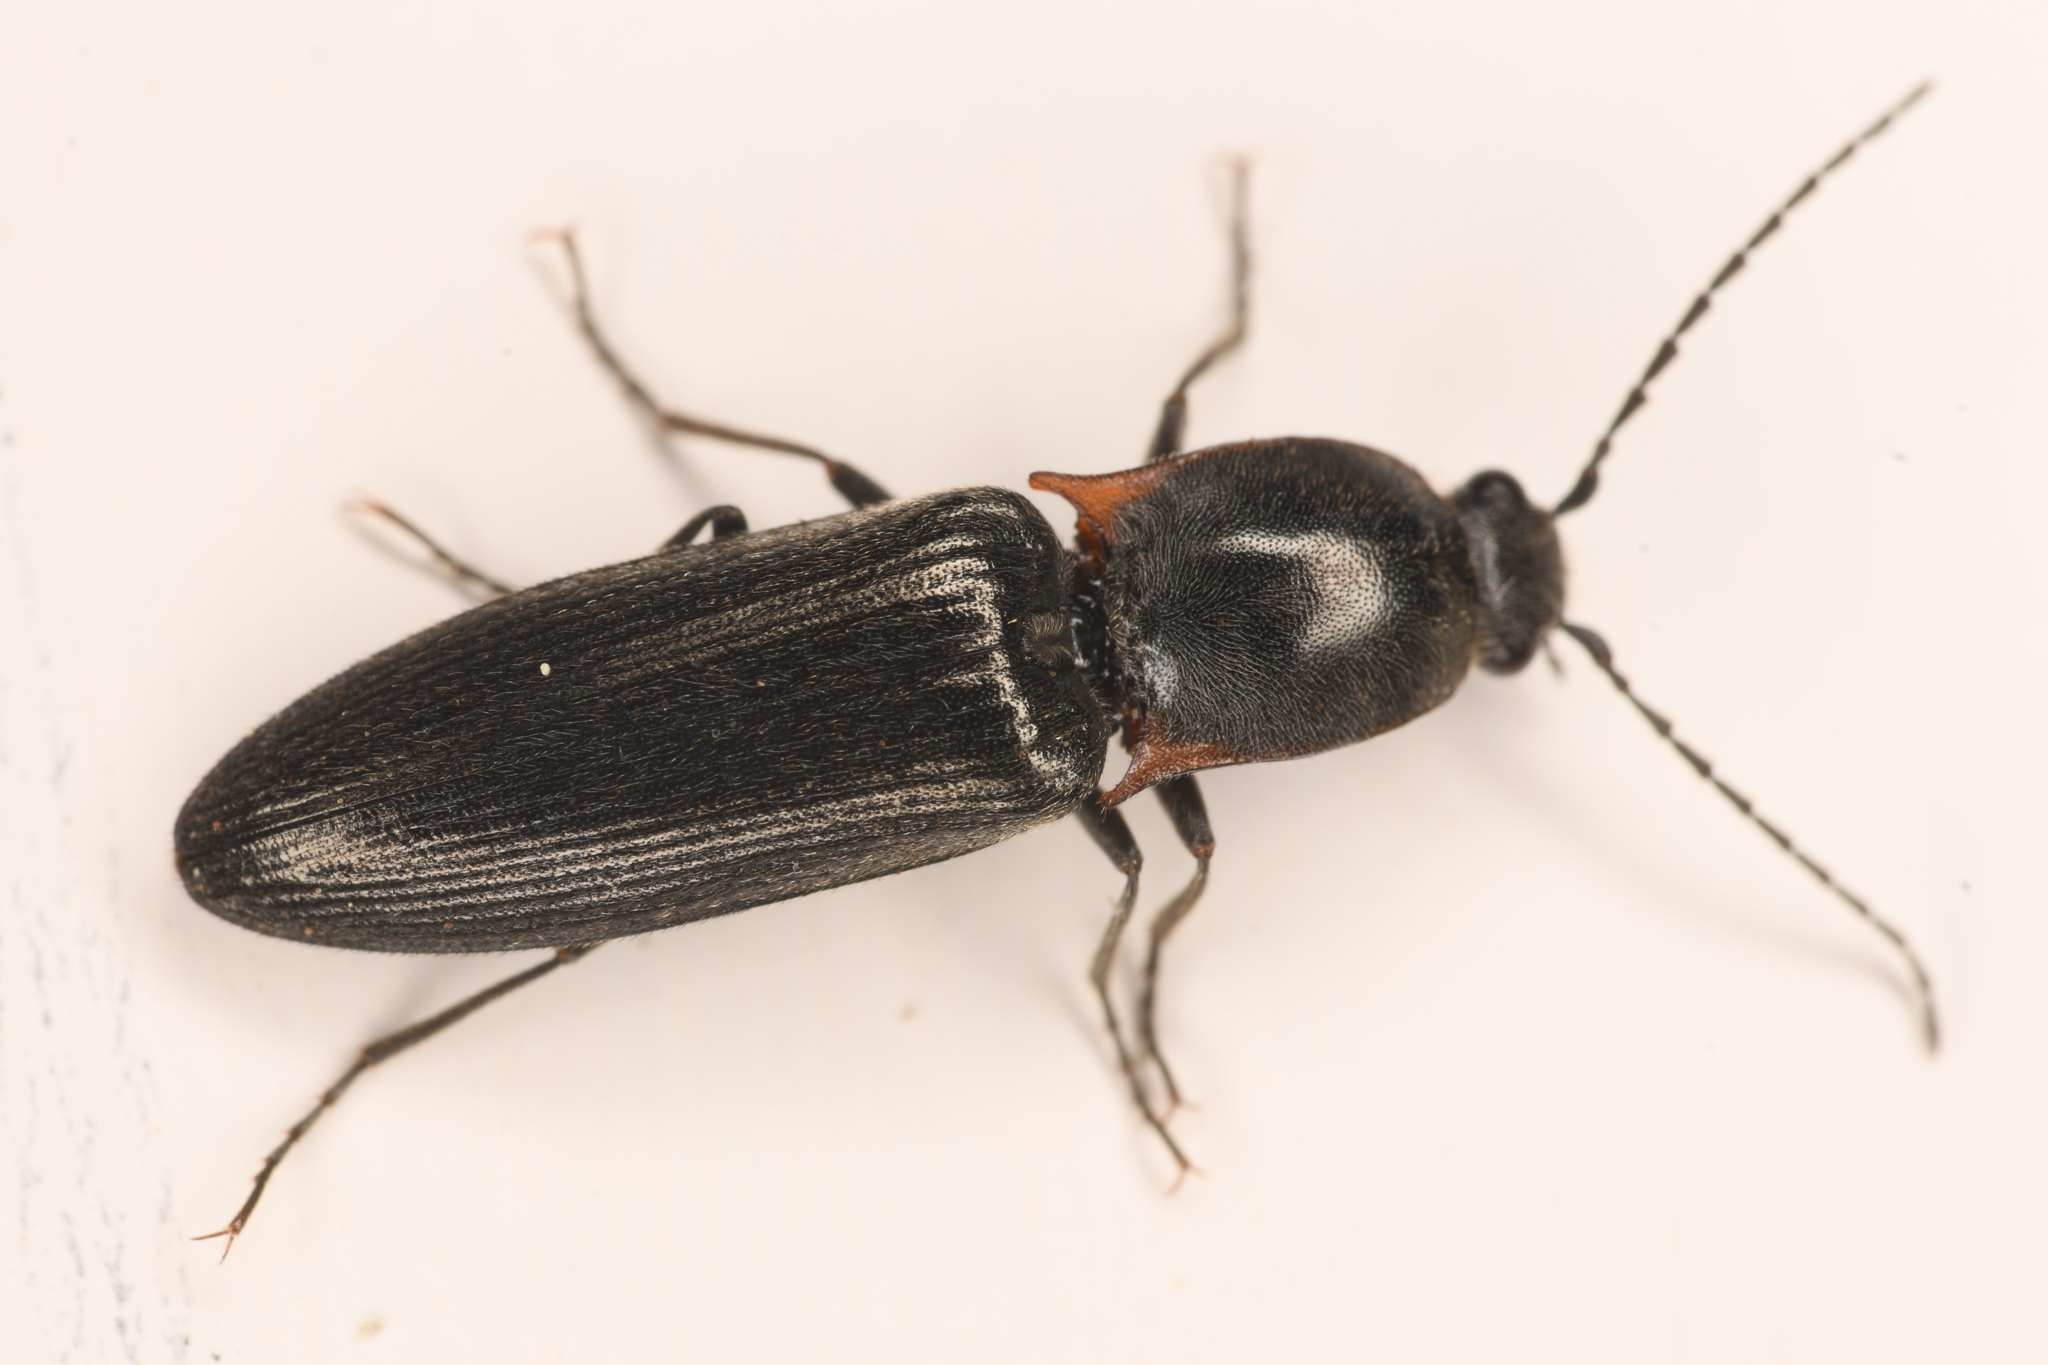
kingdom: Animalia
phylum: Arthropoda
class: Insecta
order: Coleoptera
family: Elateridae
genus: Acteniceromorphus
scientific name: Acteniceromorphus
